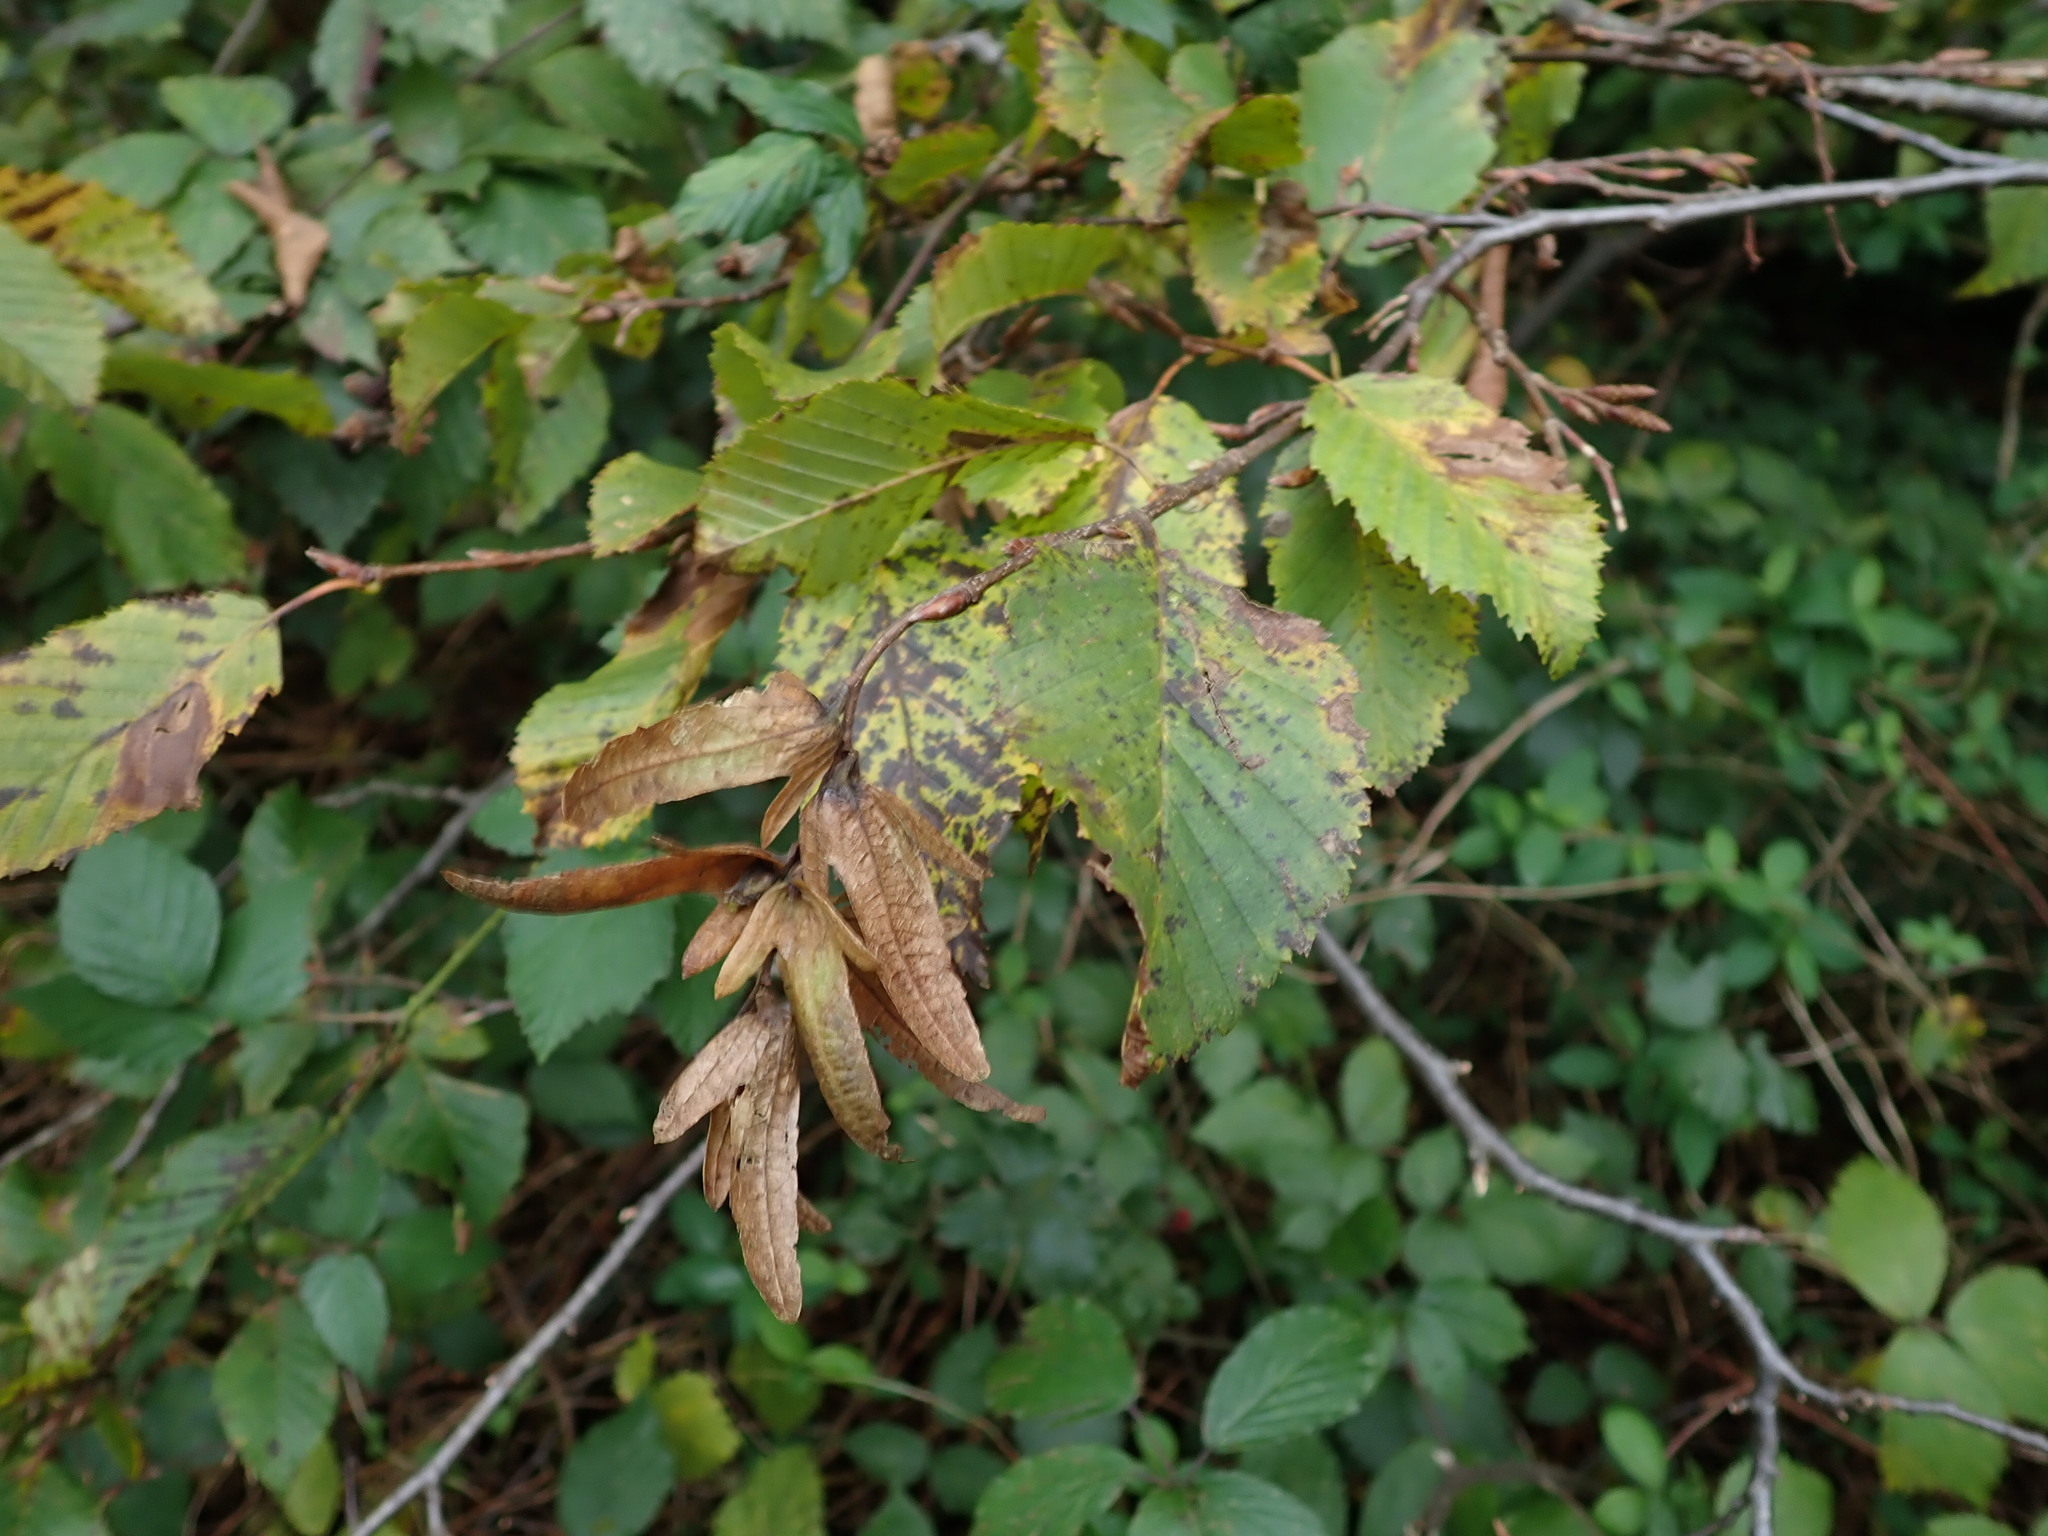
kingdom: Plantae
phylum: Tracheophyta
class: Magnoliopsida
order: Fagales
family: Betulaceae
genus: Carpinus
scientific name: Carpinus betulus
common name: Hornbeam
